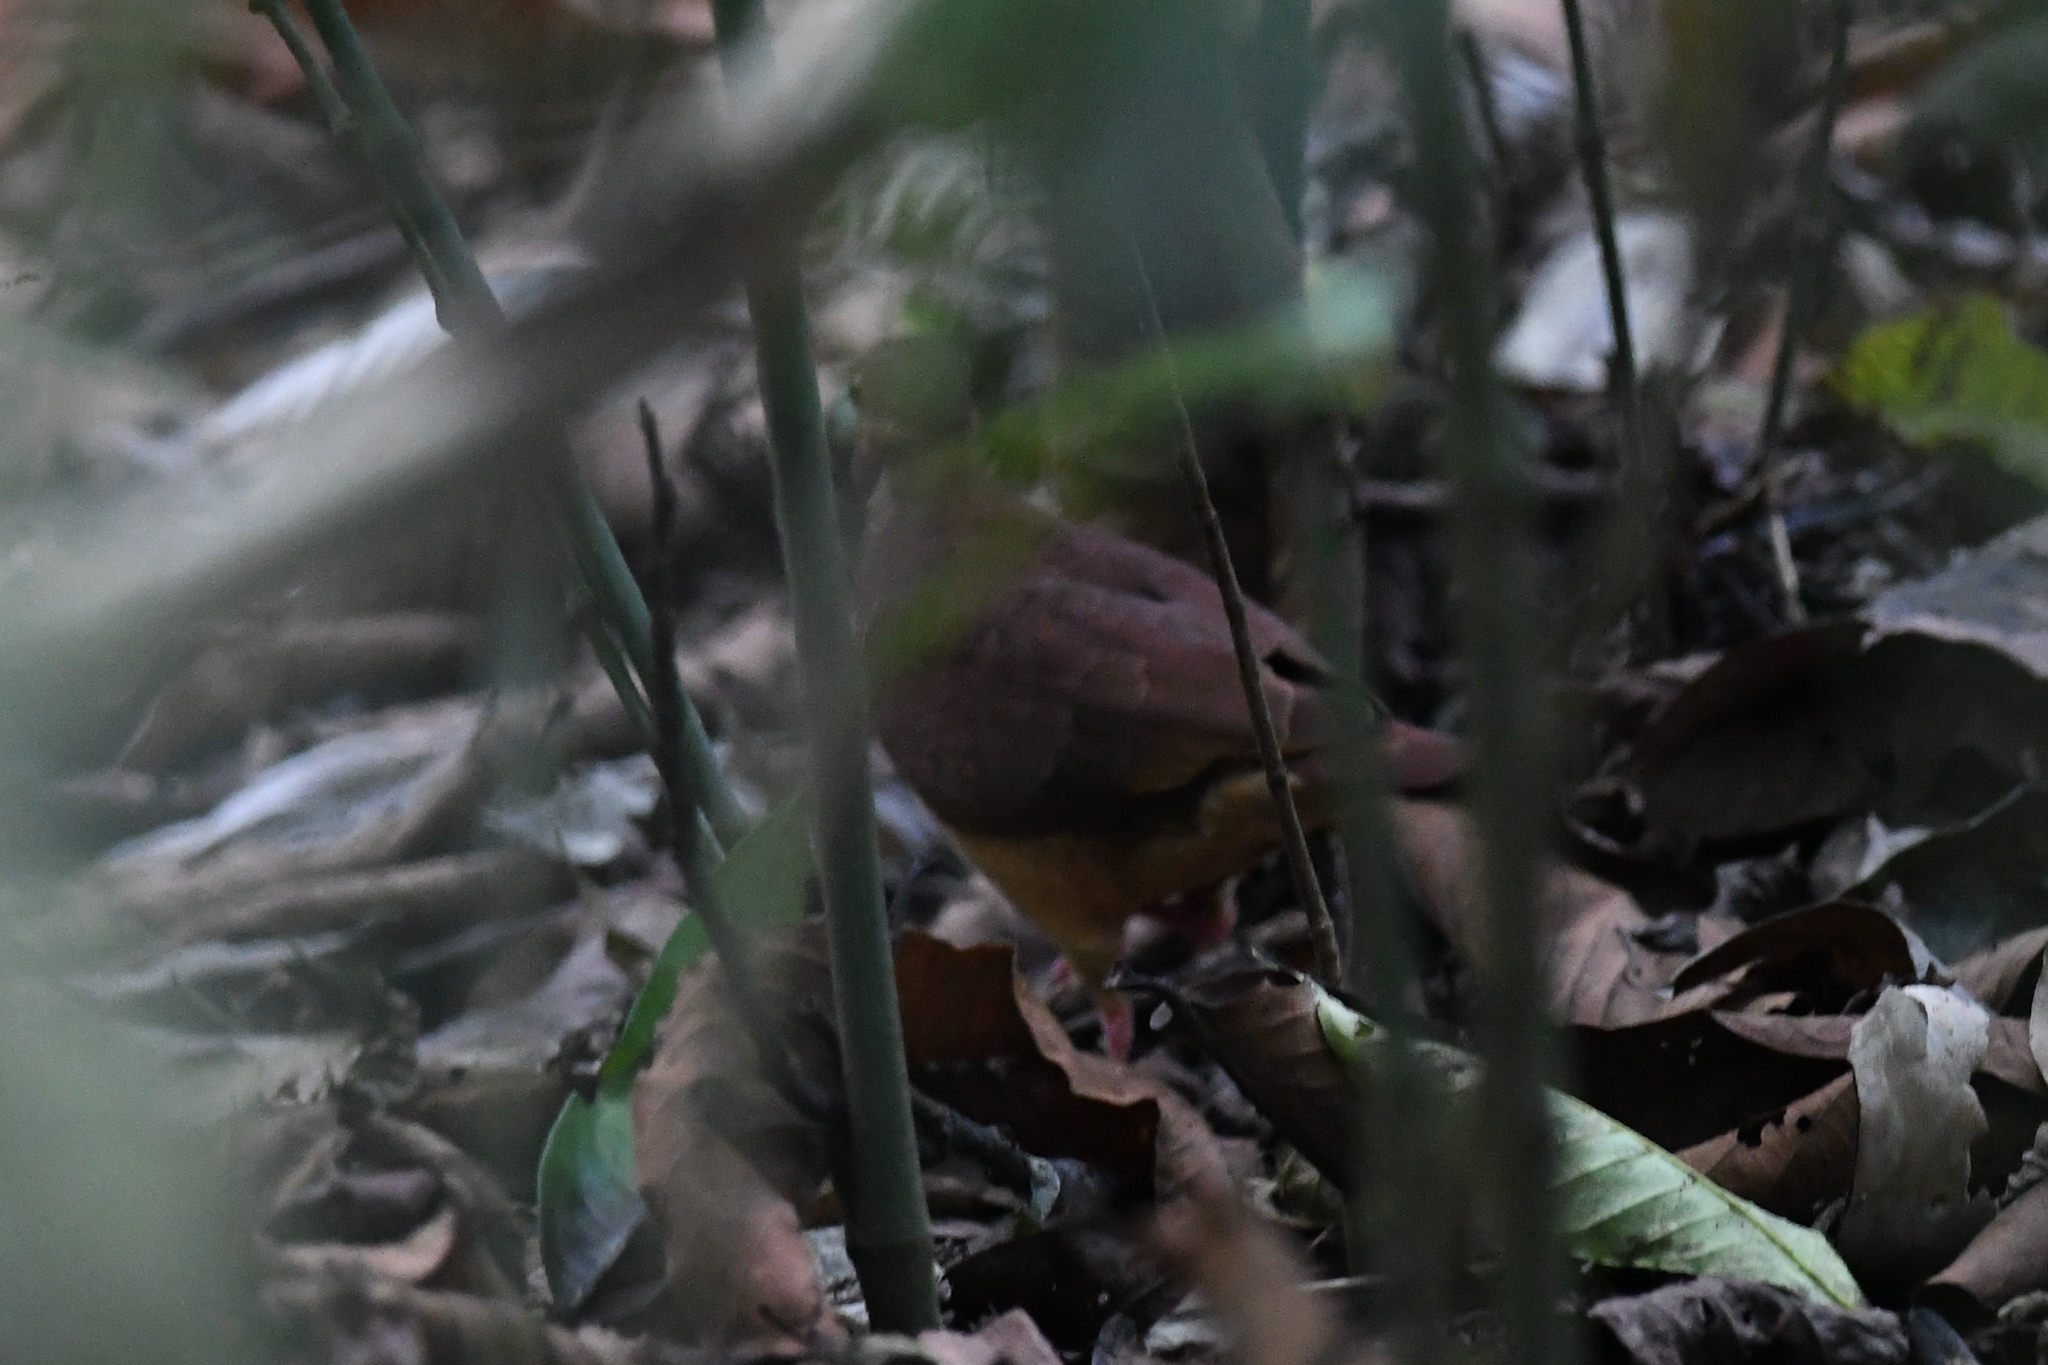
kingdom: Animalia
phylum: Chordata
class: Aves
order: Columbiformes
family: Columbidae
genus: Geotrygon
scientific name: Geotrygon montana
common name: Ruddy quail-dove
